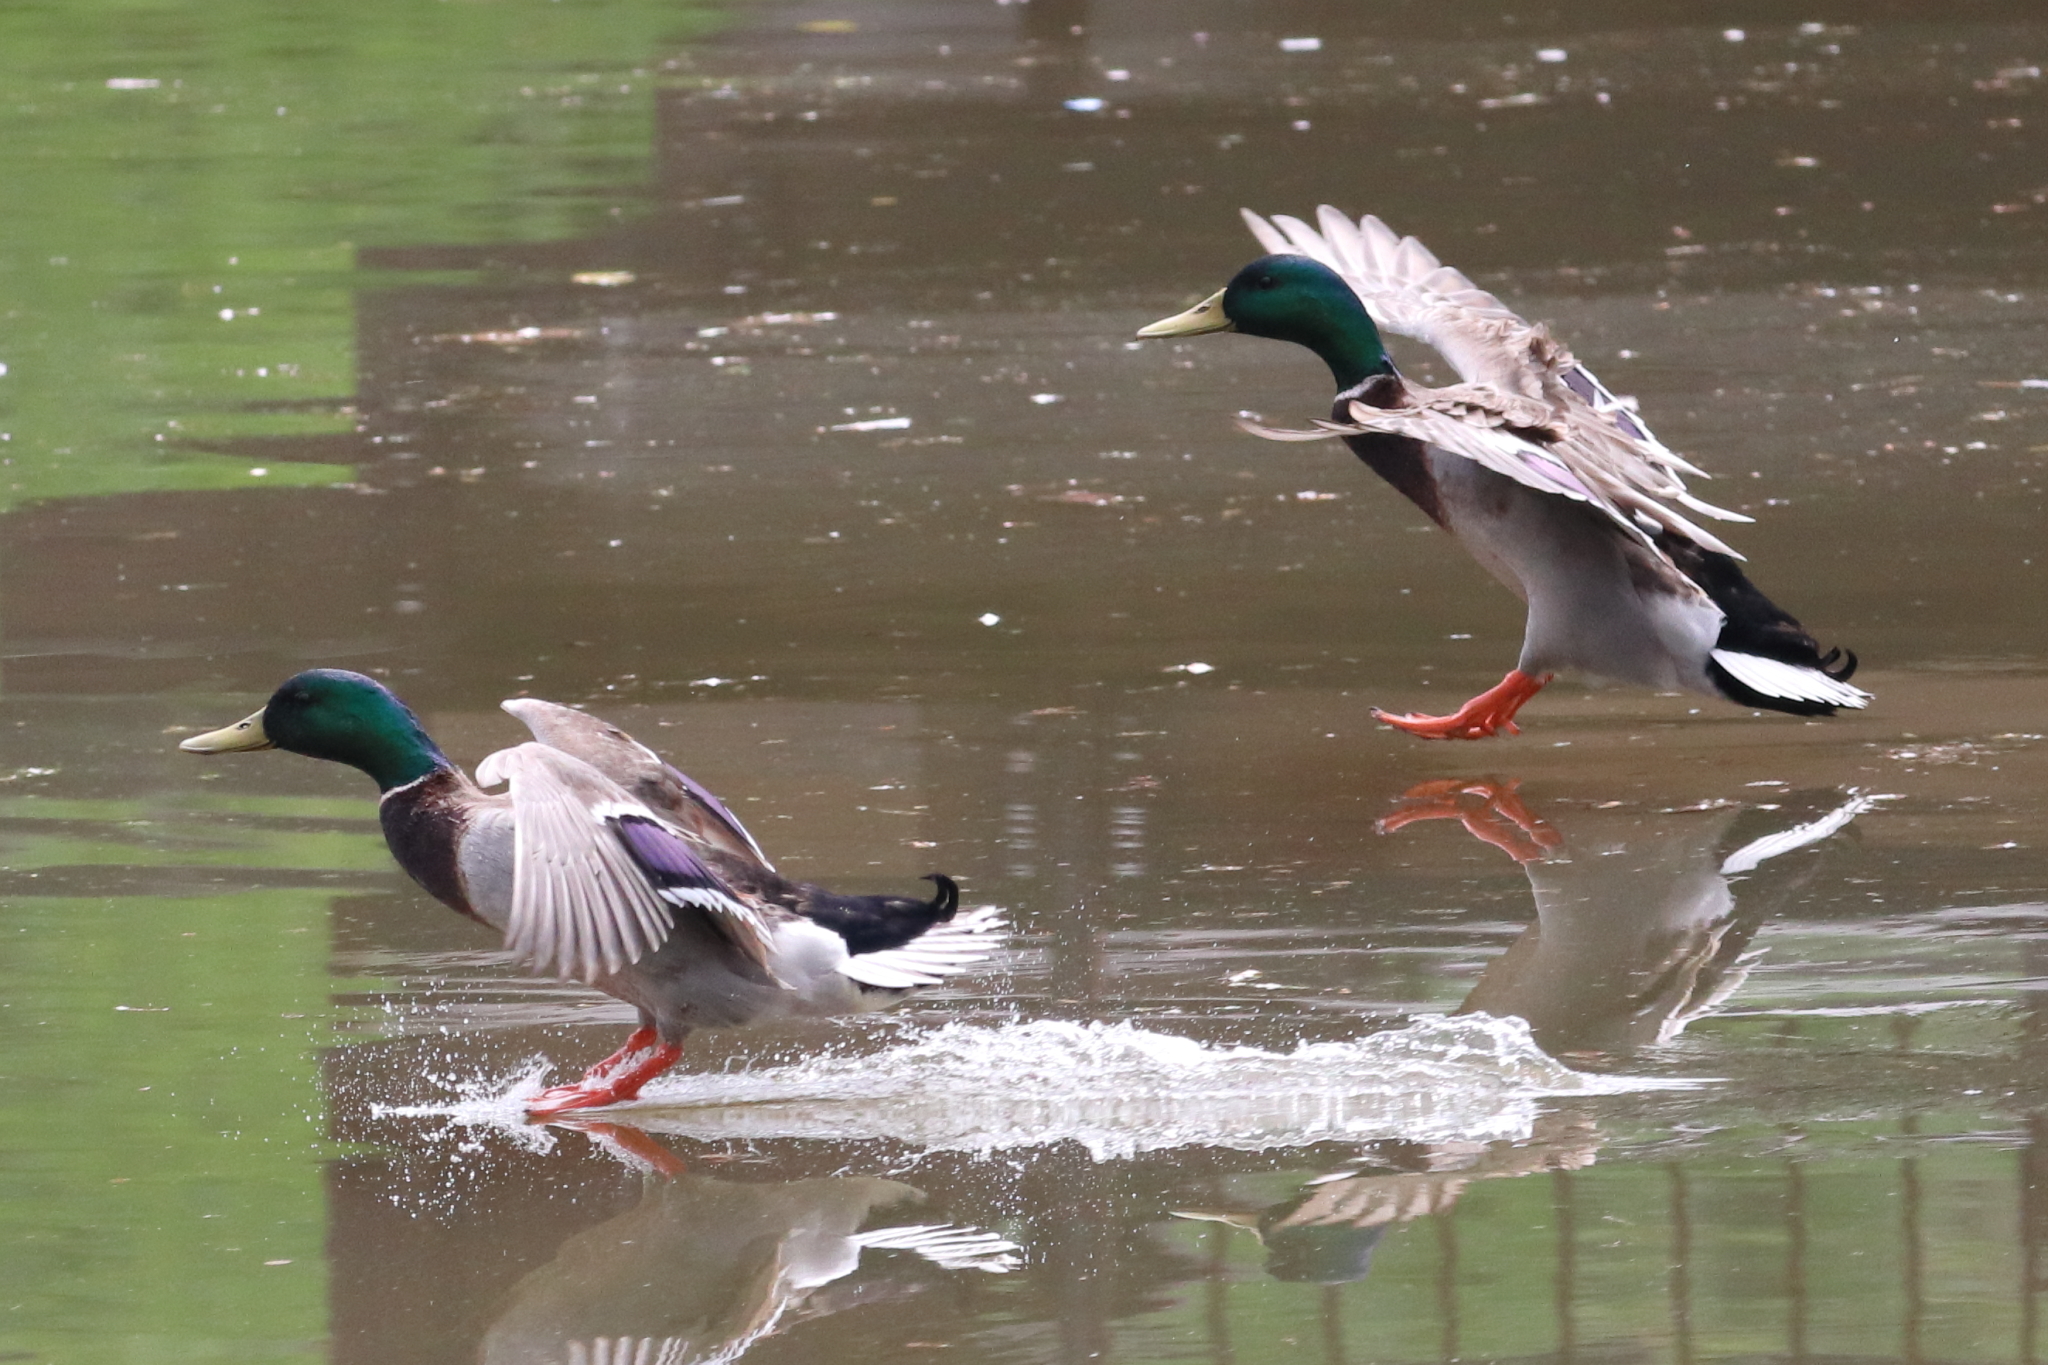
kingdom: Animalia
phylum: Chordata
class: Aves
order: Anseriformes
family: Anatidae
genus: Anas
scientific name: Anas platyrhynchos
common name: Mallard
